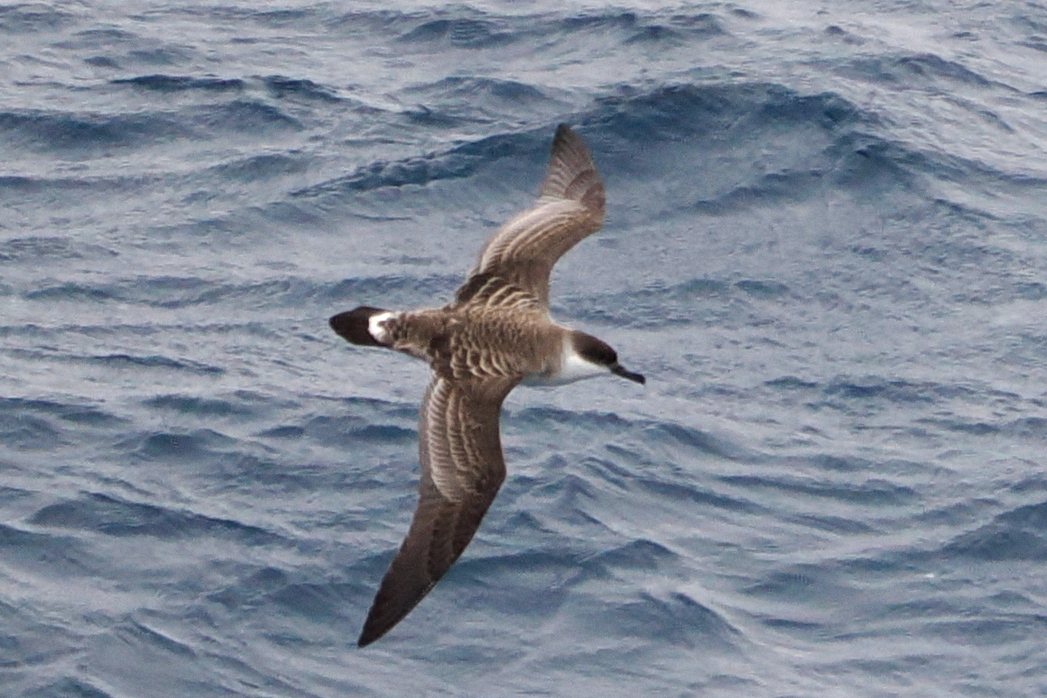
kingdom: Animalia
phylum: Chordata
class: Aves
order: Procellariiformes
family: Procellariidae
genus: Puffinus
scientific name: Puffinus gravis
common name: Great shearwater
